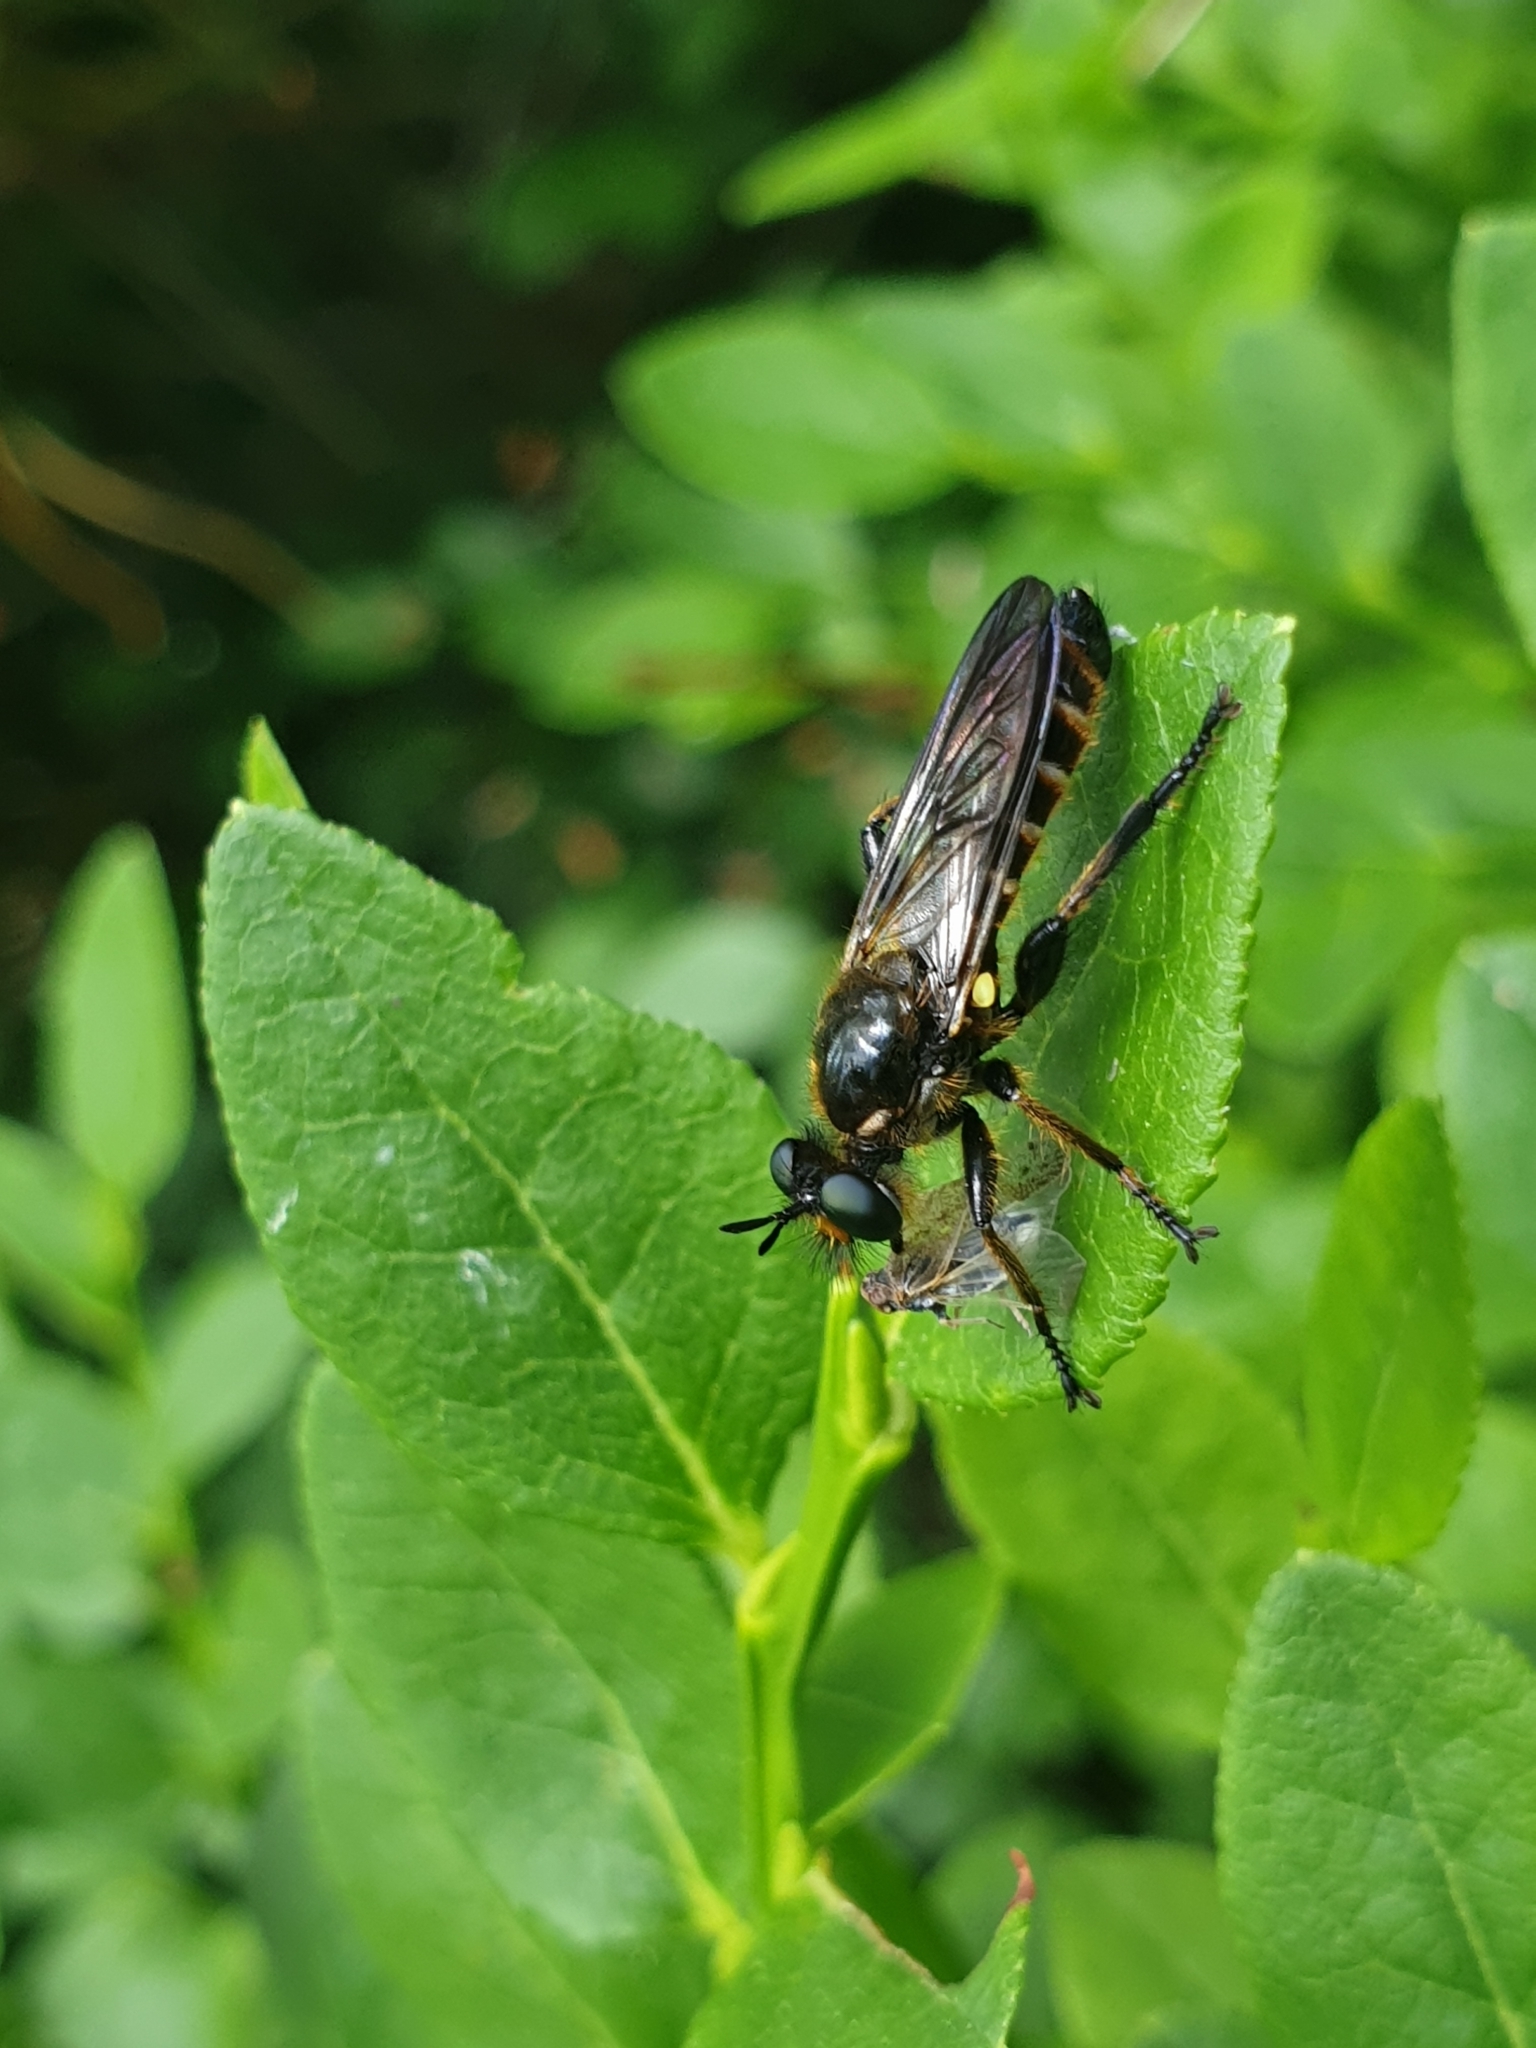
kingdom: Animalia
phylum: Arthropoda
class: Insecta
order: Diptera
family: Asilidae
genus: Lamyra
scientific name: Lamyra marginata
